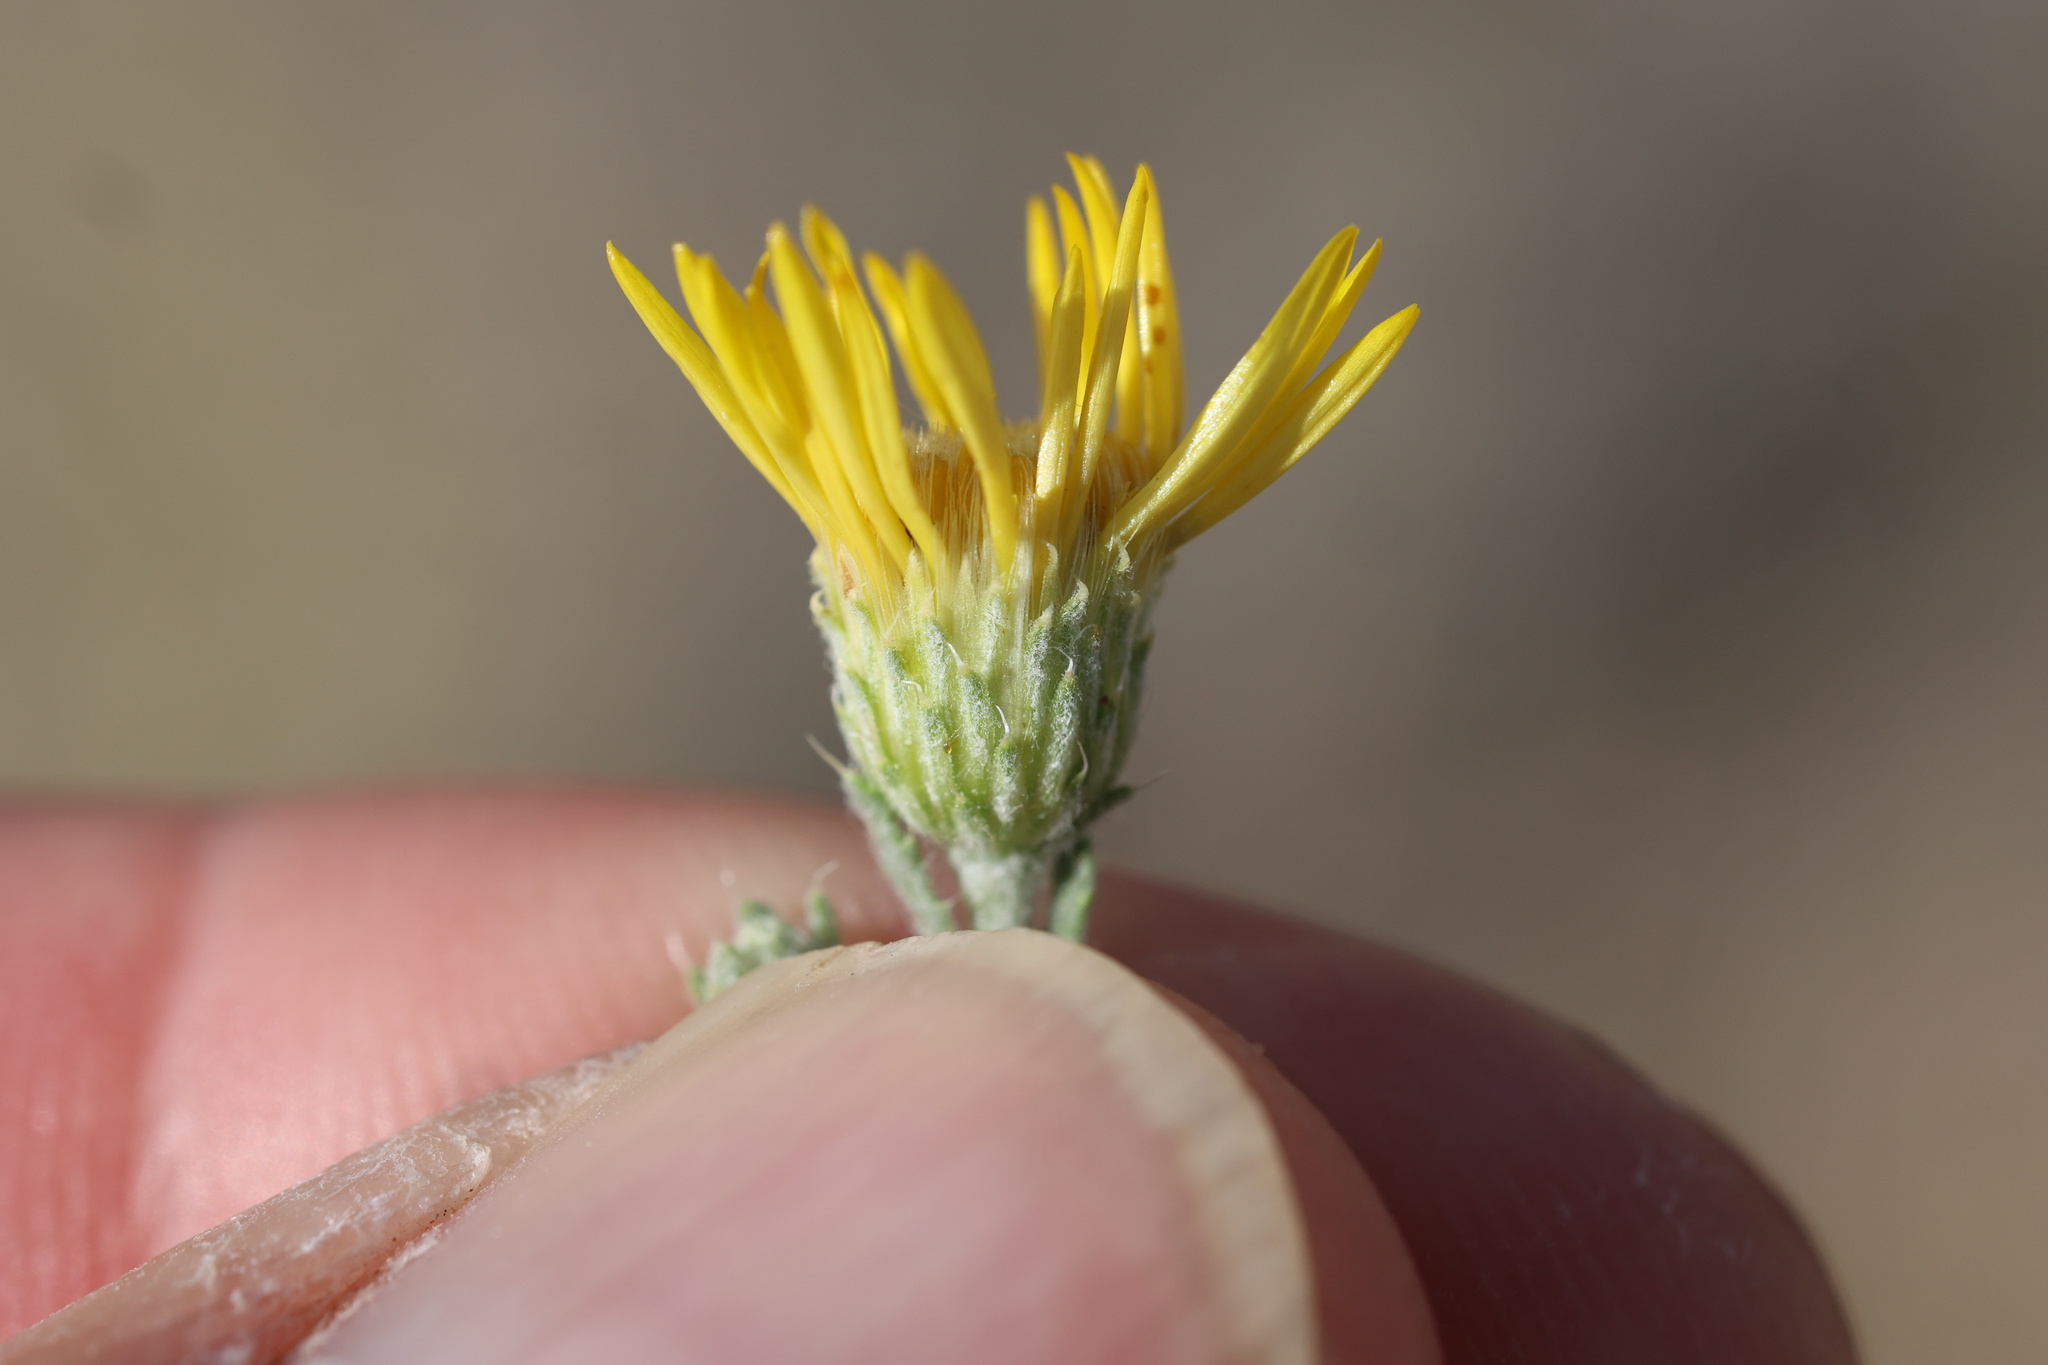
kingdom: Plantae
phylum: Tracheophyta
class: Magnoliopsida
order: Asterales
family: Asteraceae
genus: Xanthisma
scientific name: Xanthisma spinulosum
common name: Spiny goldenweed
